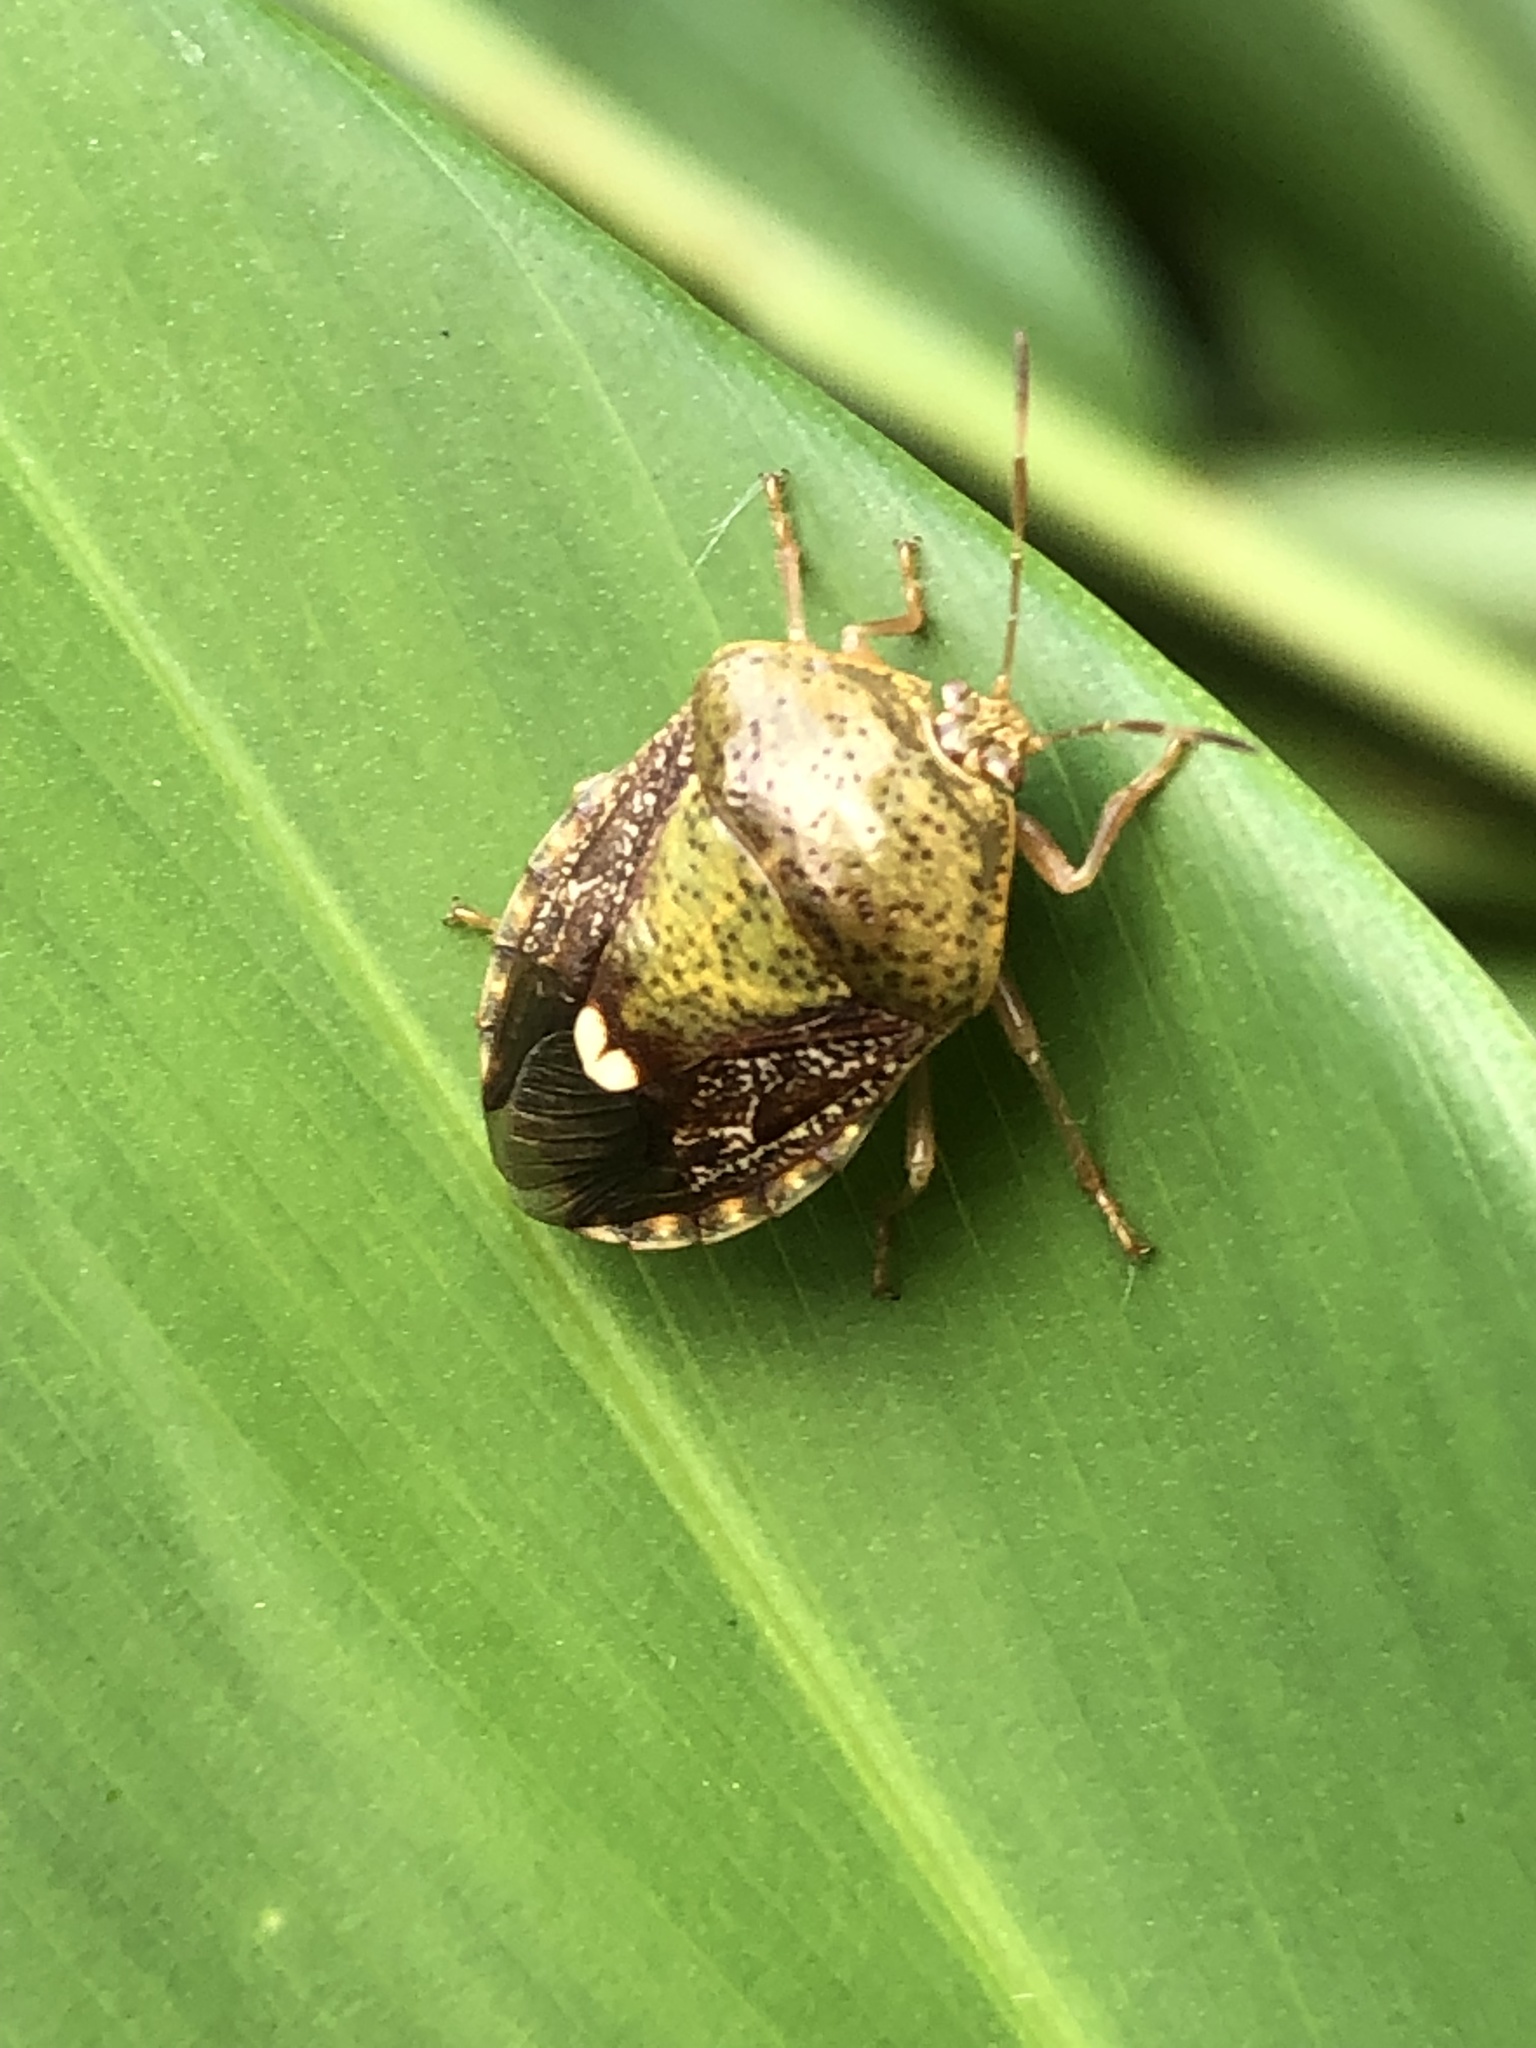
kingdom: Animalia
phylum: Arthropoda
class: Insecta
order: Hemiptera
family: Pentatomidae
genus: Edessa
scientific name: Edessa bifida
